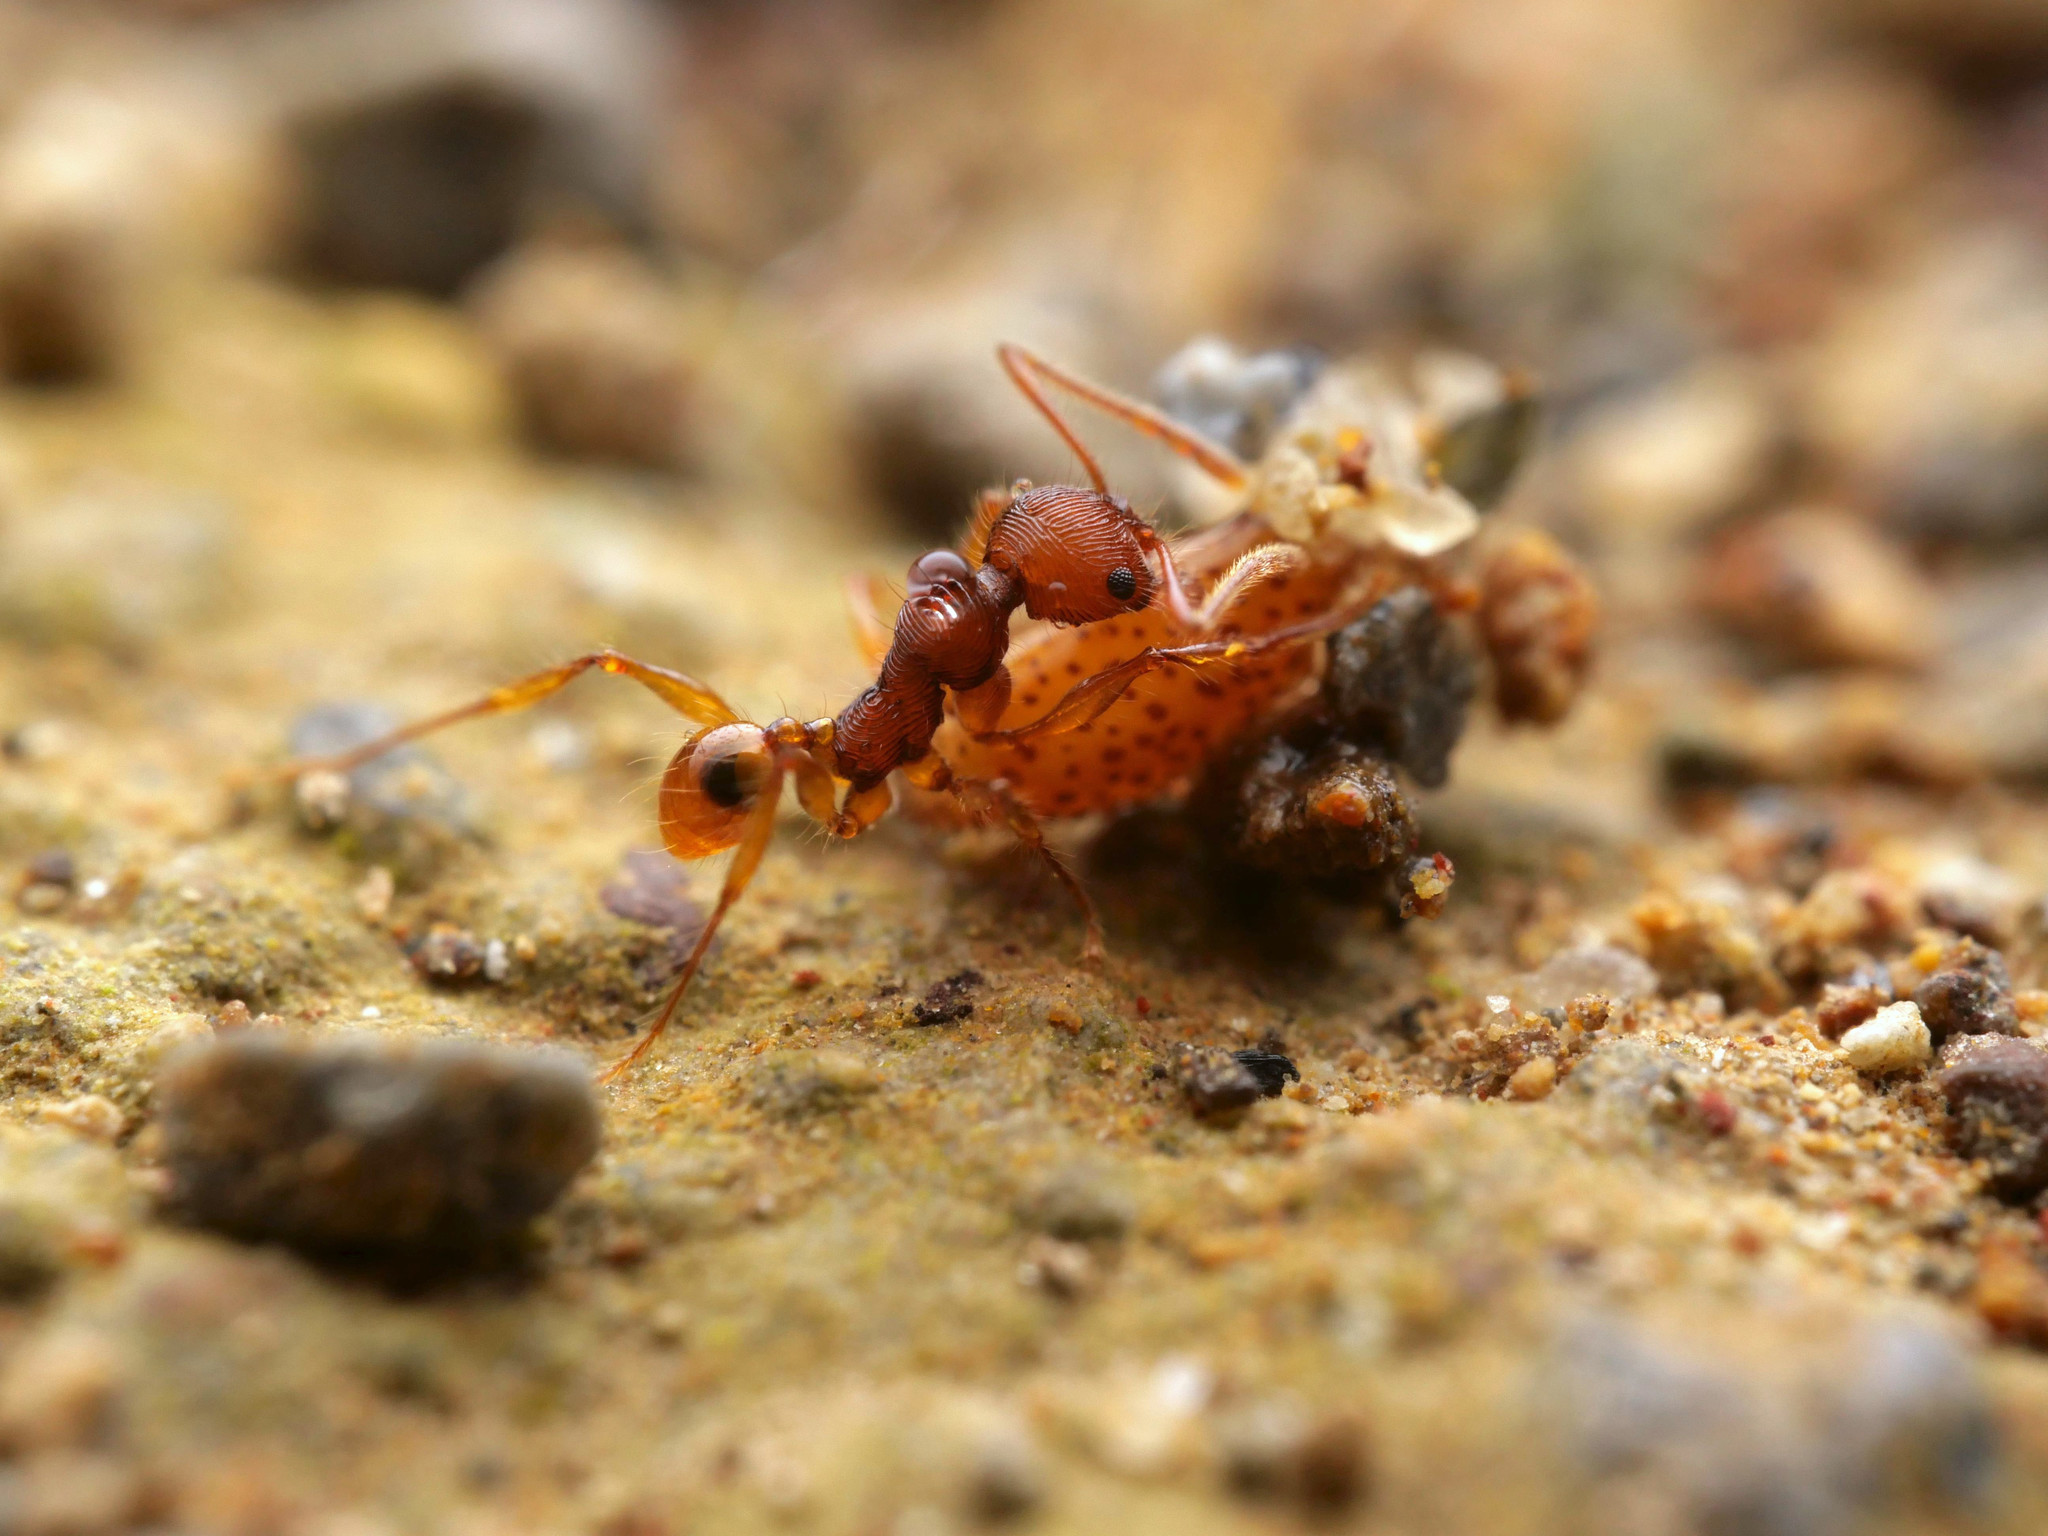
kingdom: Animalia
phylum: Arthropoda
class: Insecta
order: Hymenoptera
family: Formicidae
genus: Pheidole
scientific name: Pheidole ectatommoides
